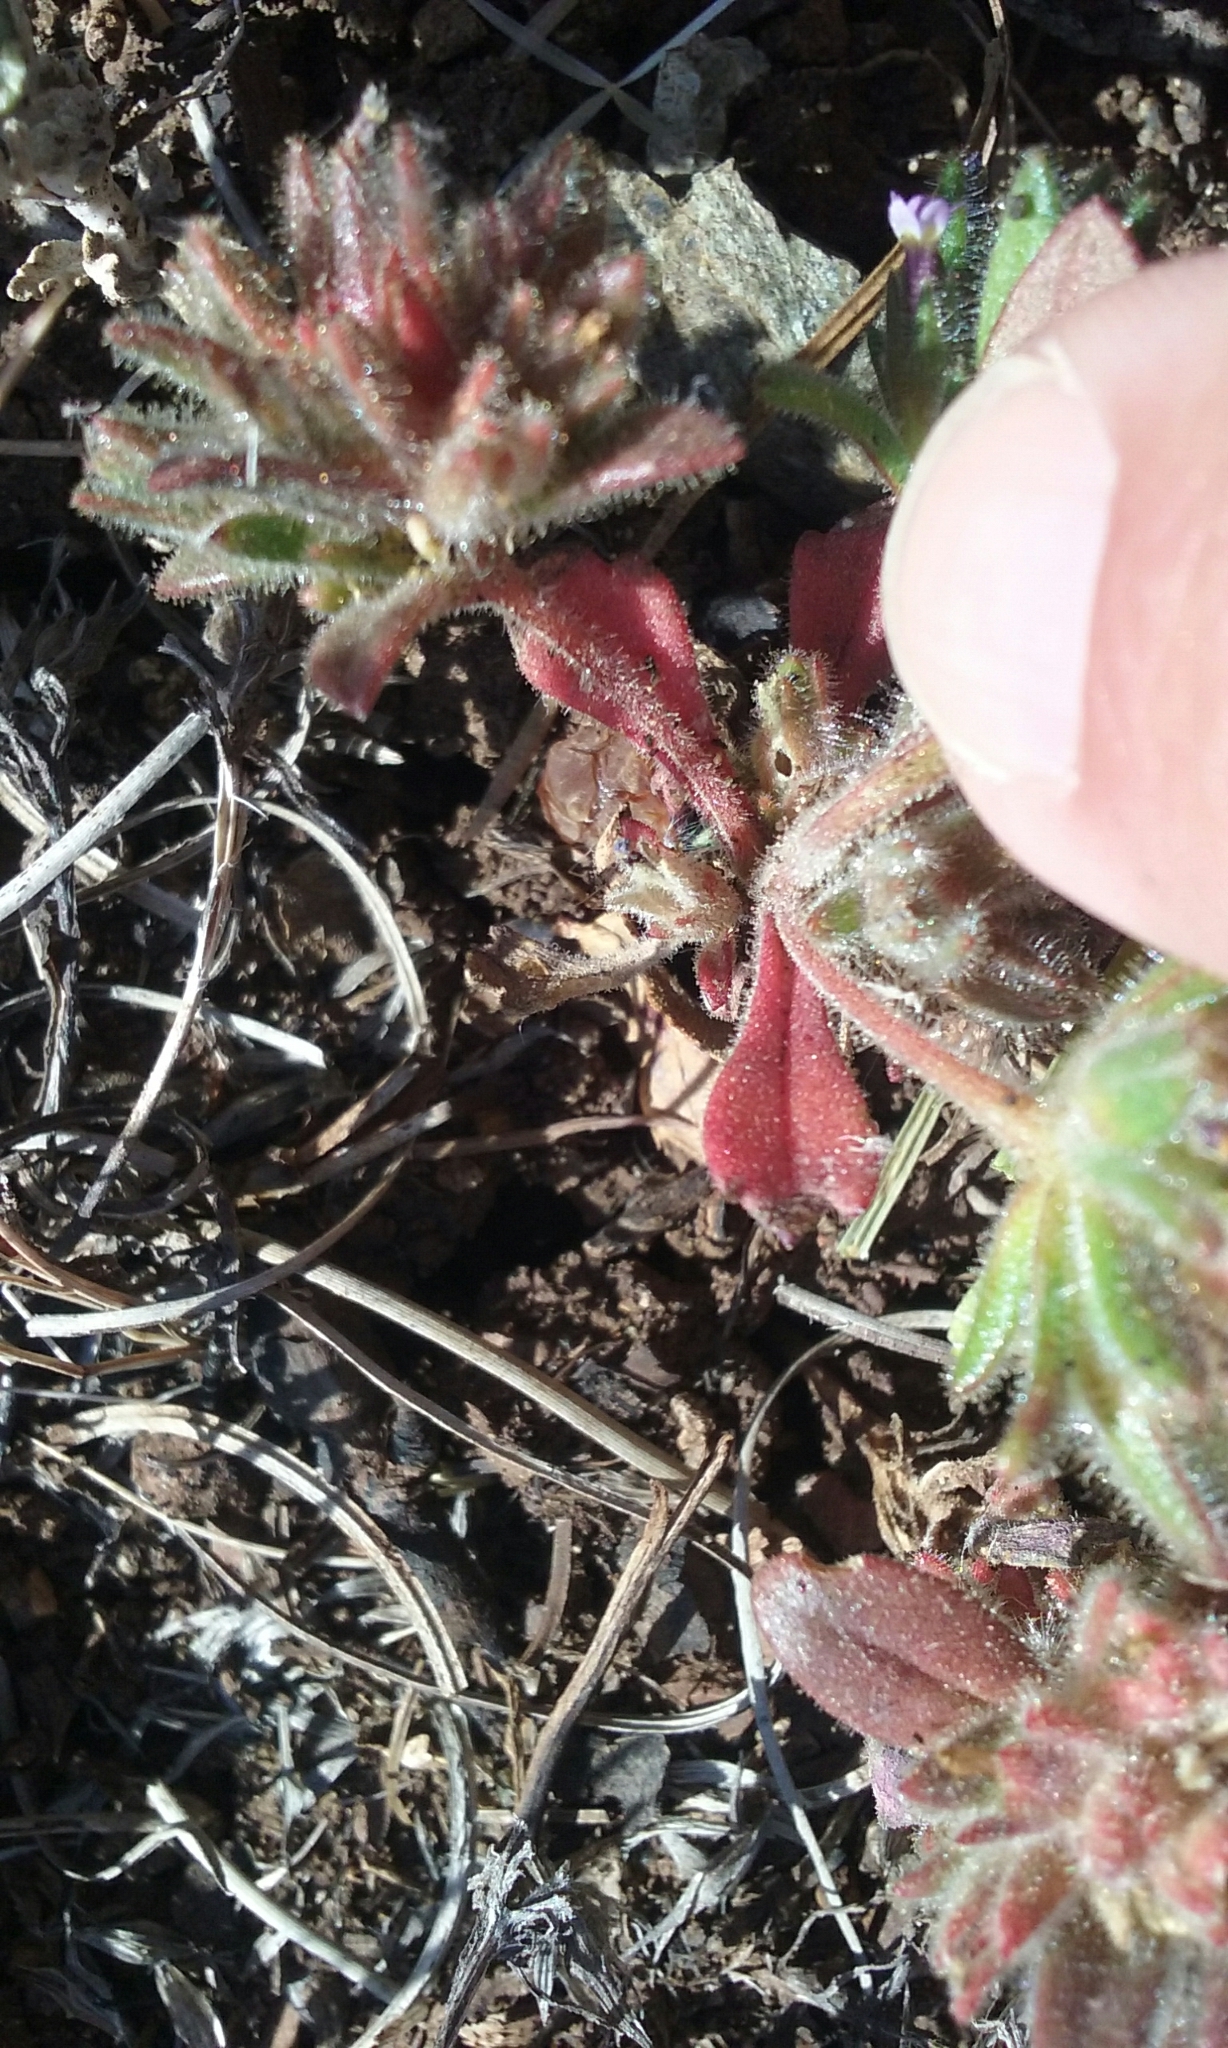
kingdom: Plantae
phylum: Tracheophyta
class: Magnoliopsida
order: Ericales
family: Polemoniaceae
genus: Collomia
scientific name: Collomia diversifolia
